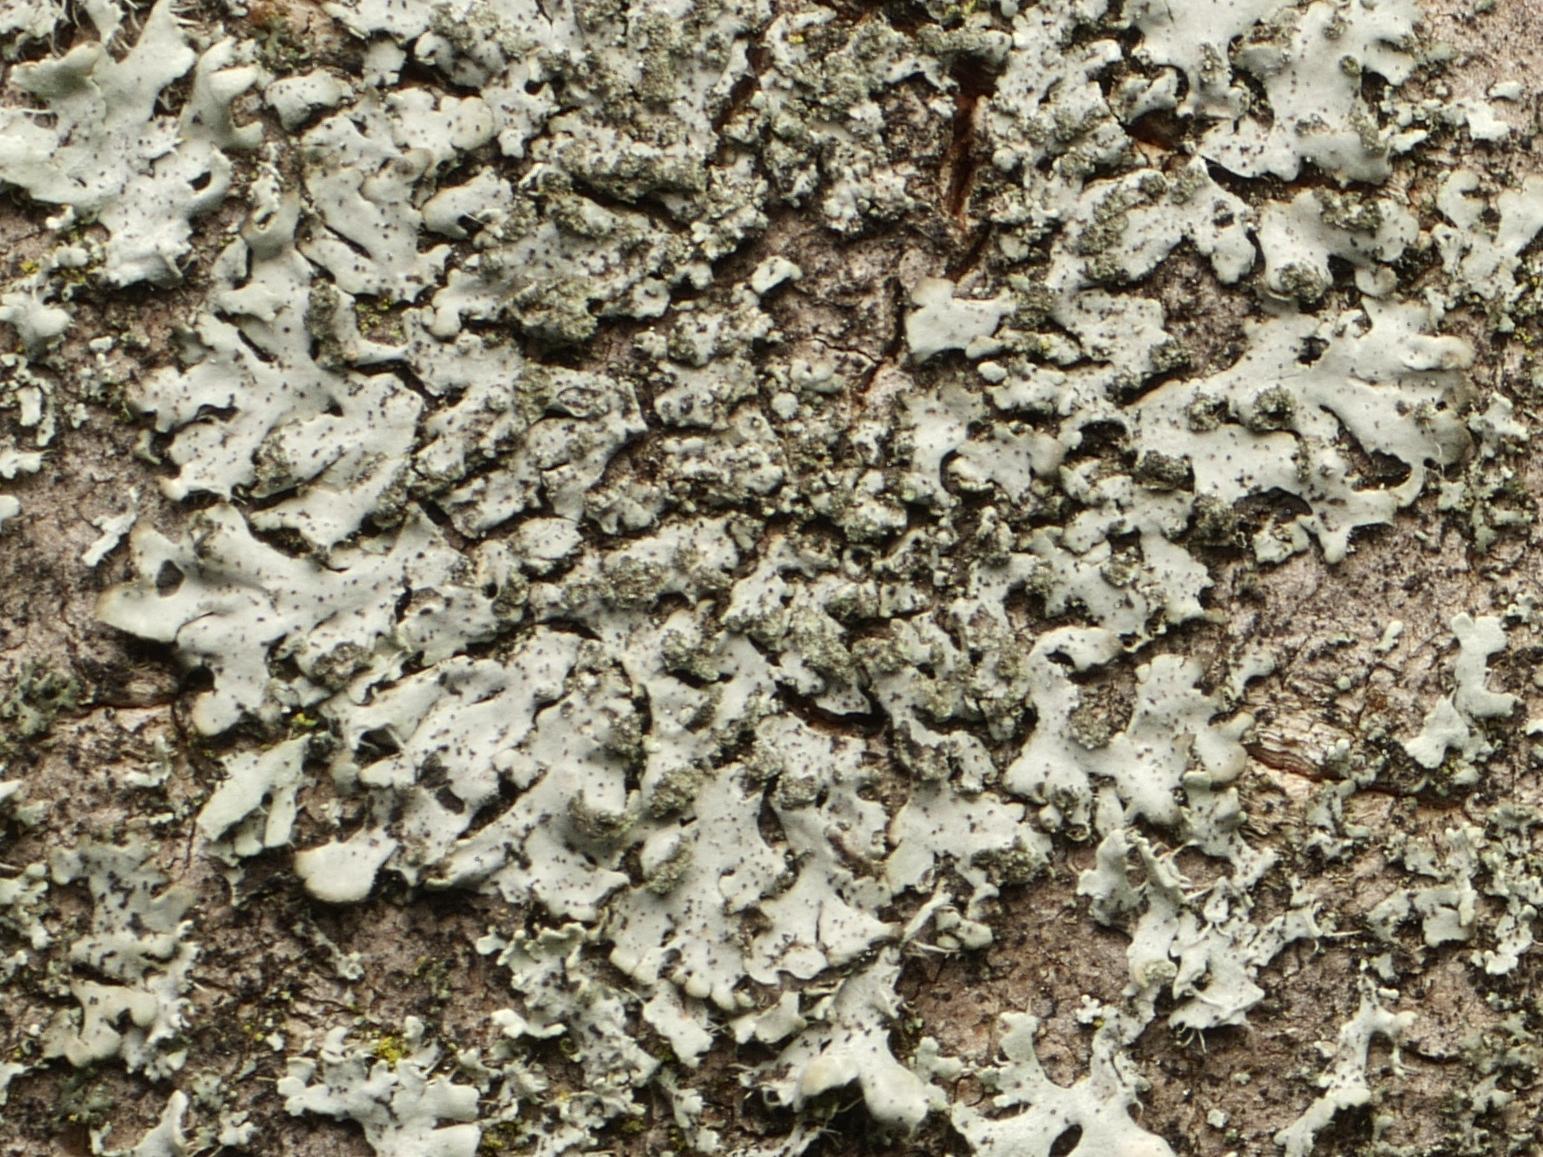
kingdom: Fungi
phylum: Ascomycota
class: Lecanoromycetes
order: Caliciales
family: Physciaceae
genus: Phaeophyscia
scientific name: Phaeophyscia orbicularis
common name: Mealy shadow lichen
